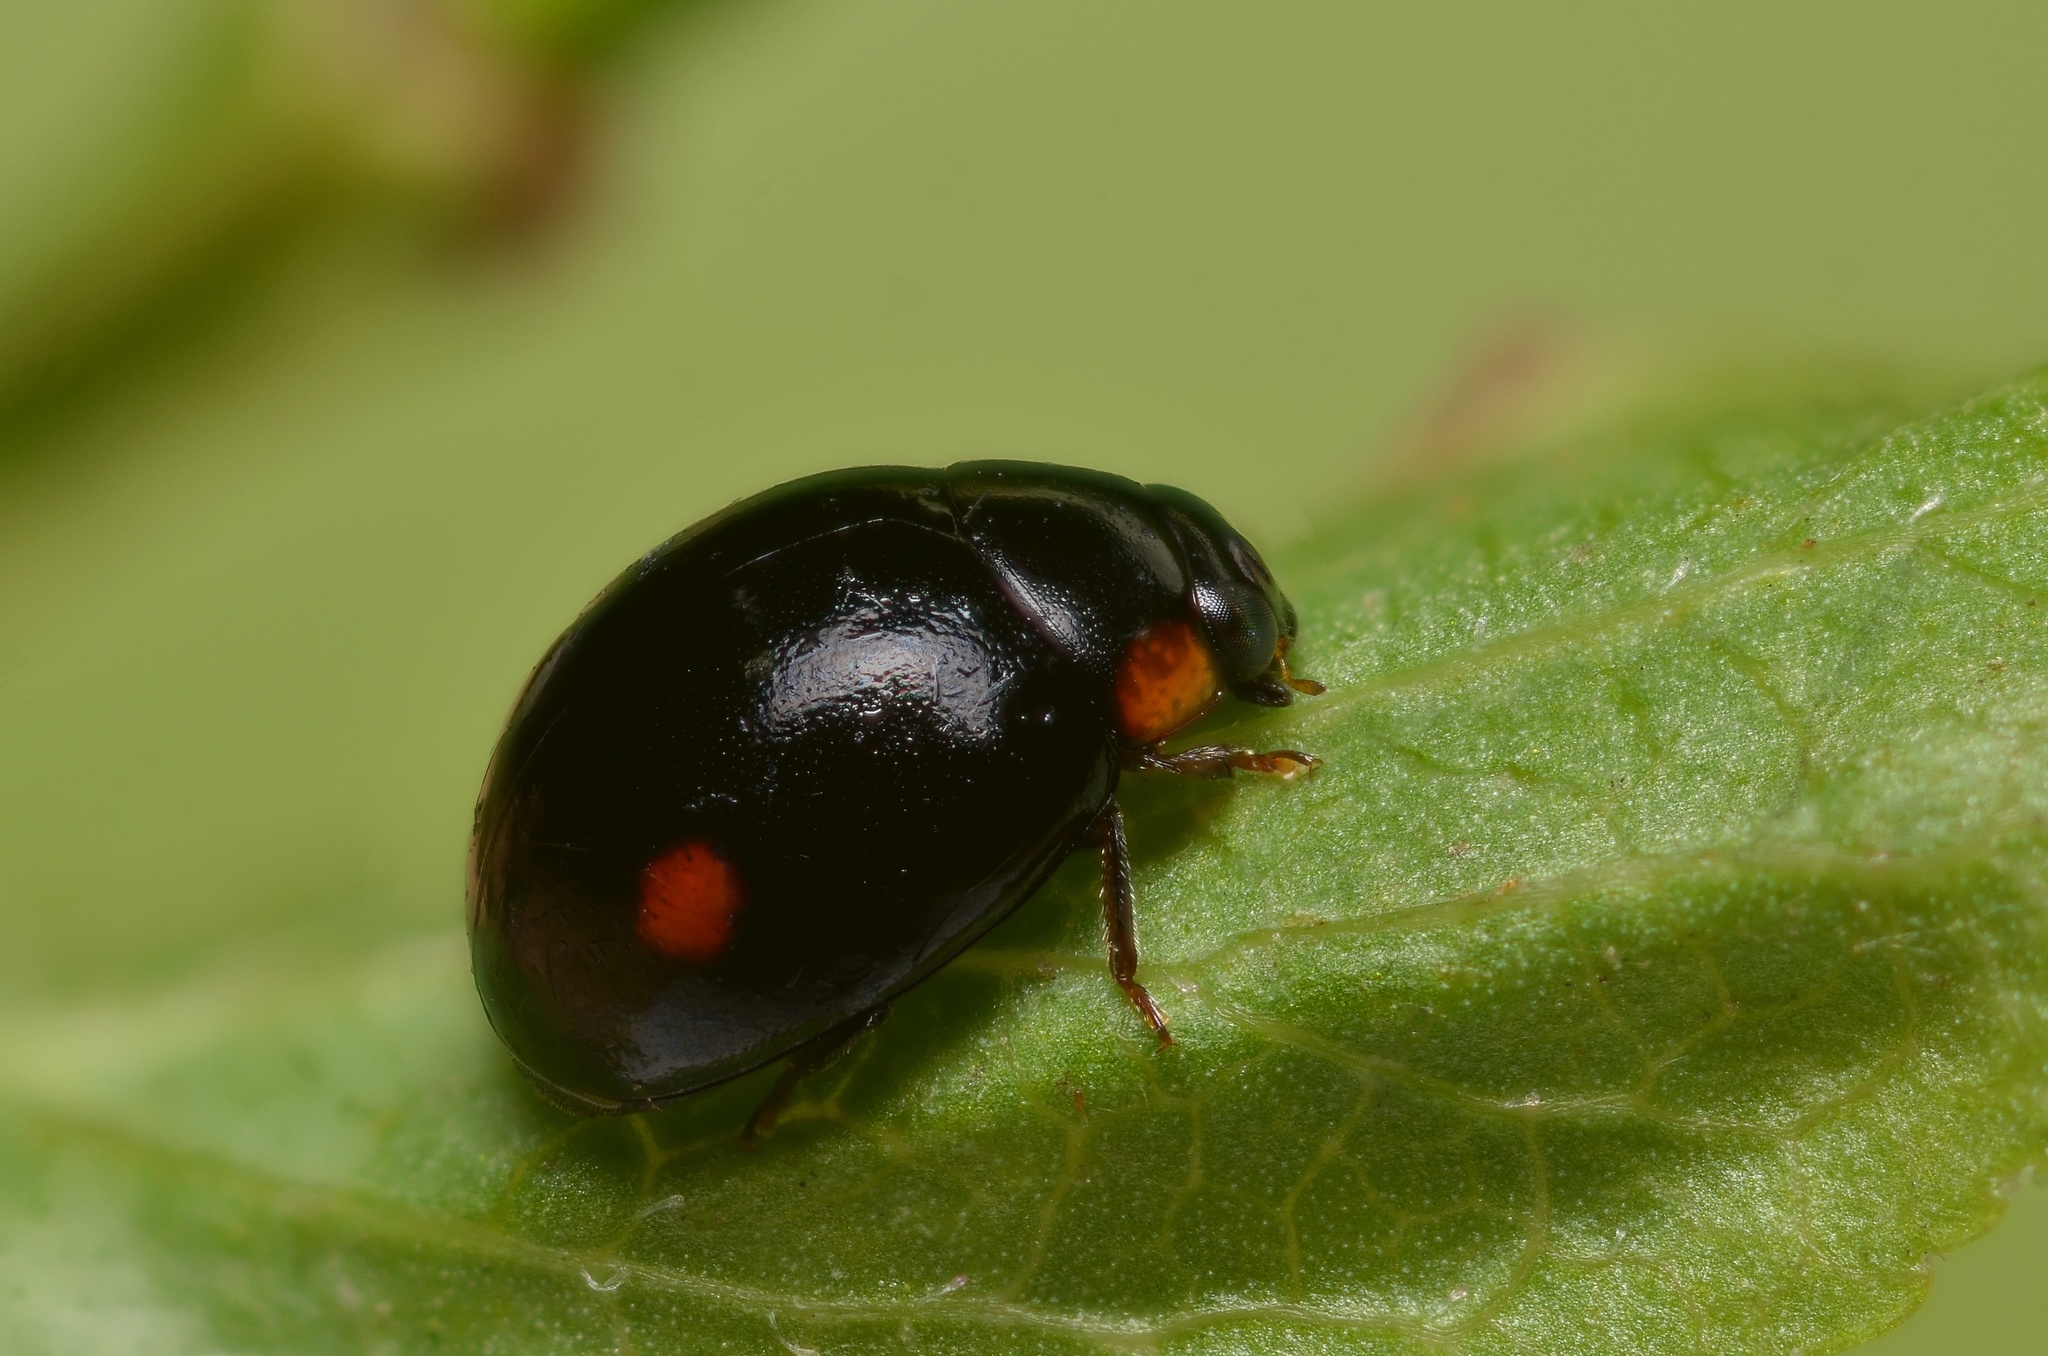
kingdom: Animalia
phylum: Arthropoda
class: Insecta
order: Coleoptera
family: Coccinellidae
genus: Hyperaspis
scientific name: Hyperaspis campestris
